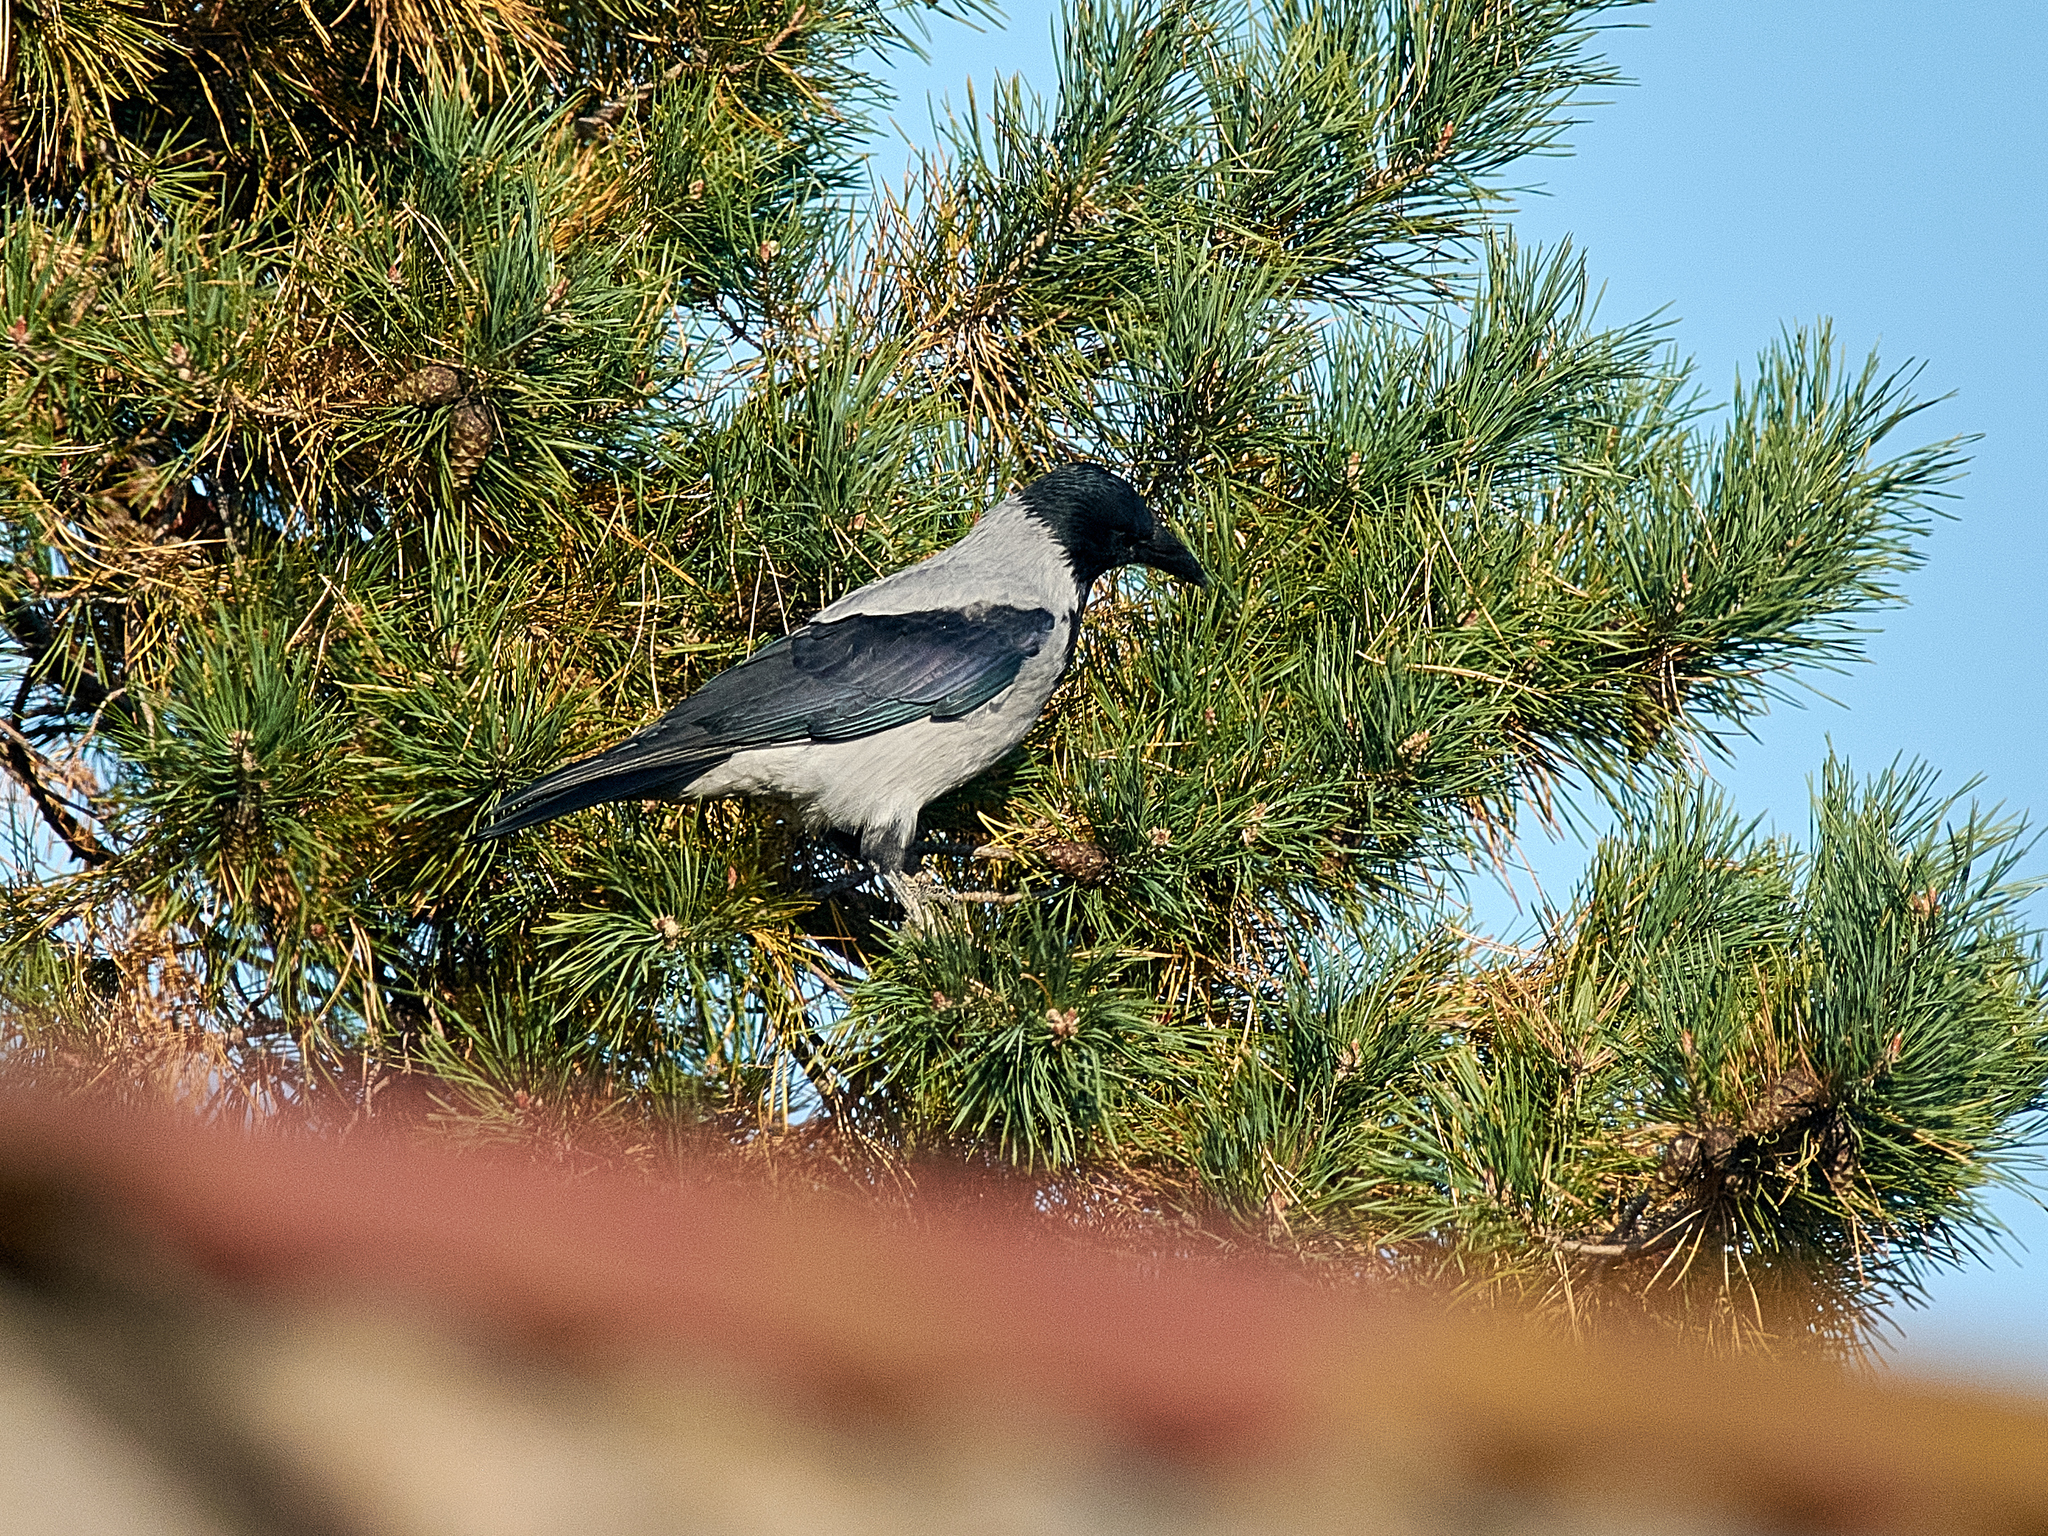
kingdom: Animalia
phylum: Chordata
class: Aves
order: Passeriformes
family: Corvidae
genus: Corvus
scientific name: Corvus cornix
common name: Hooded crow
